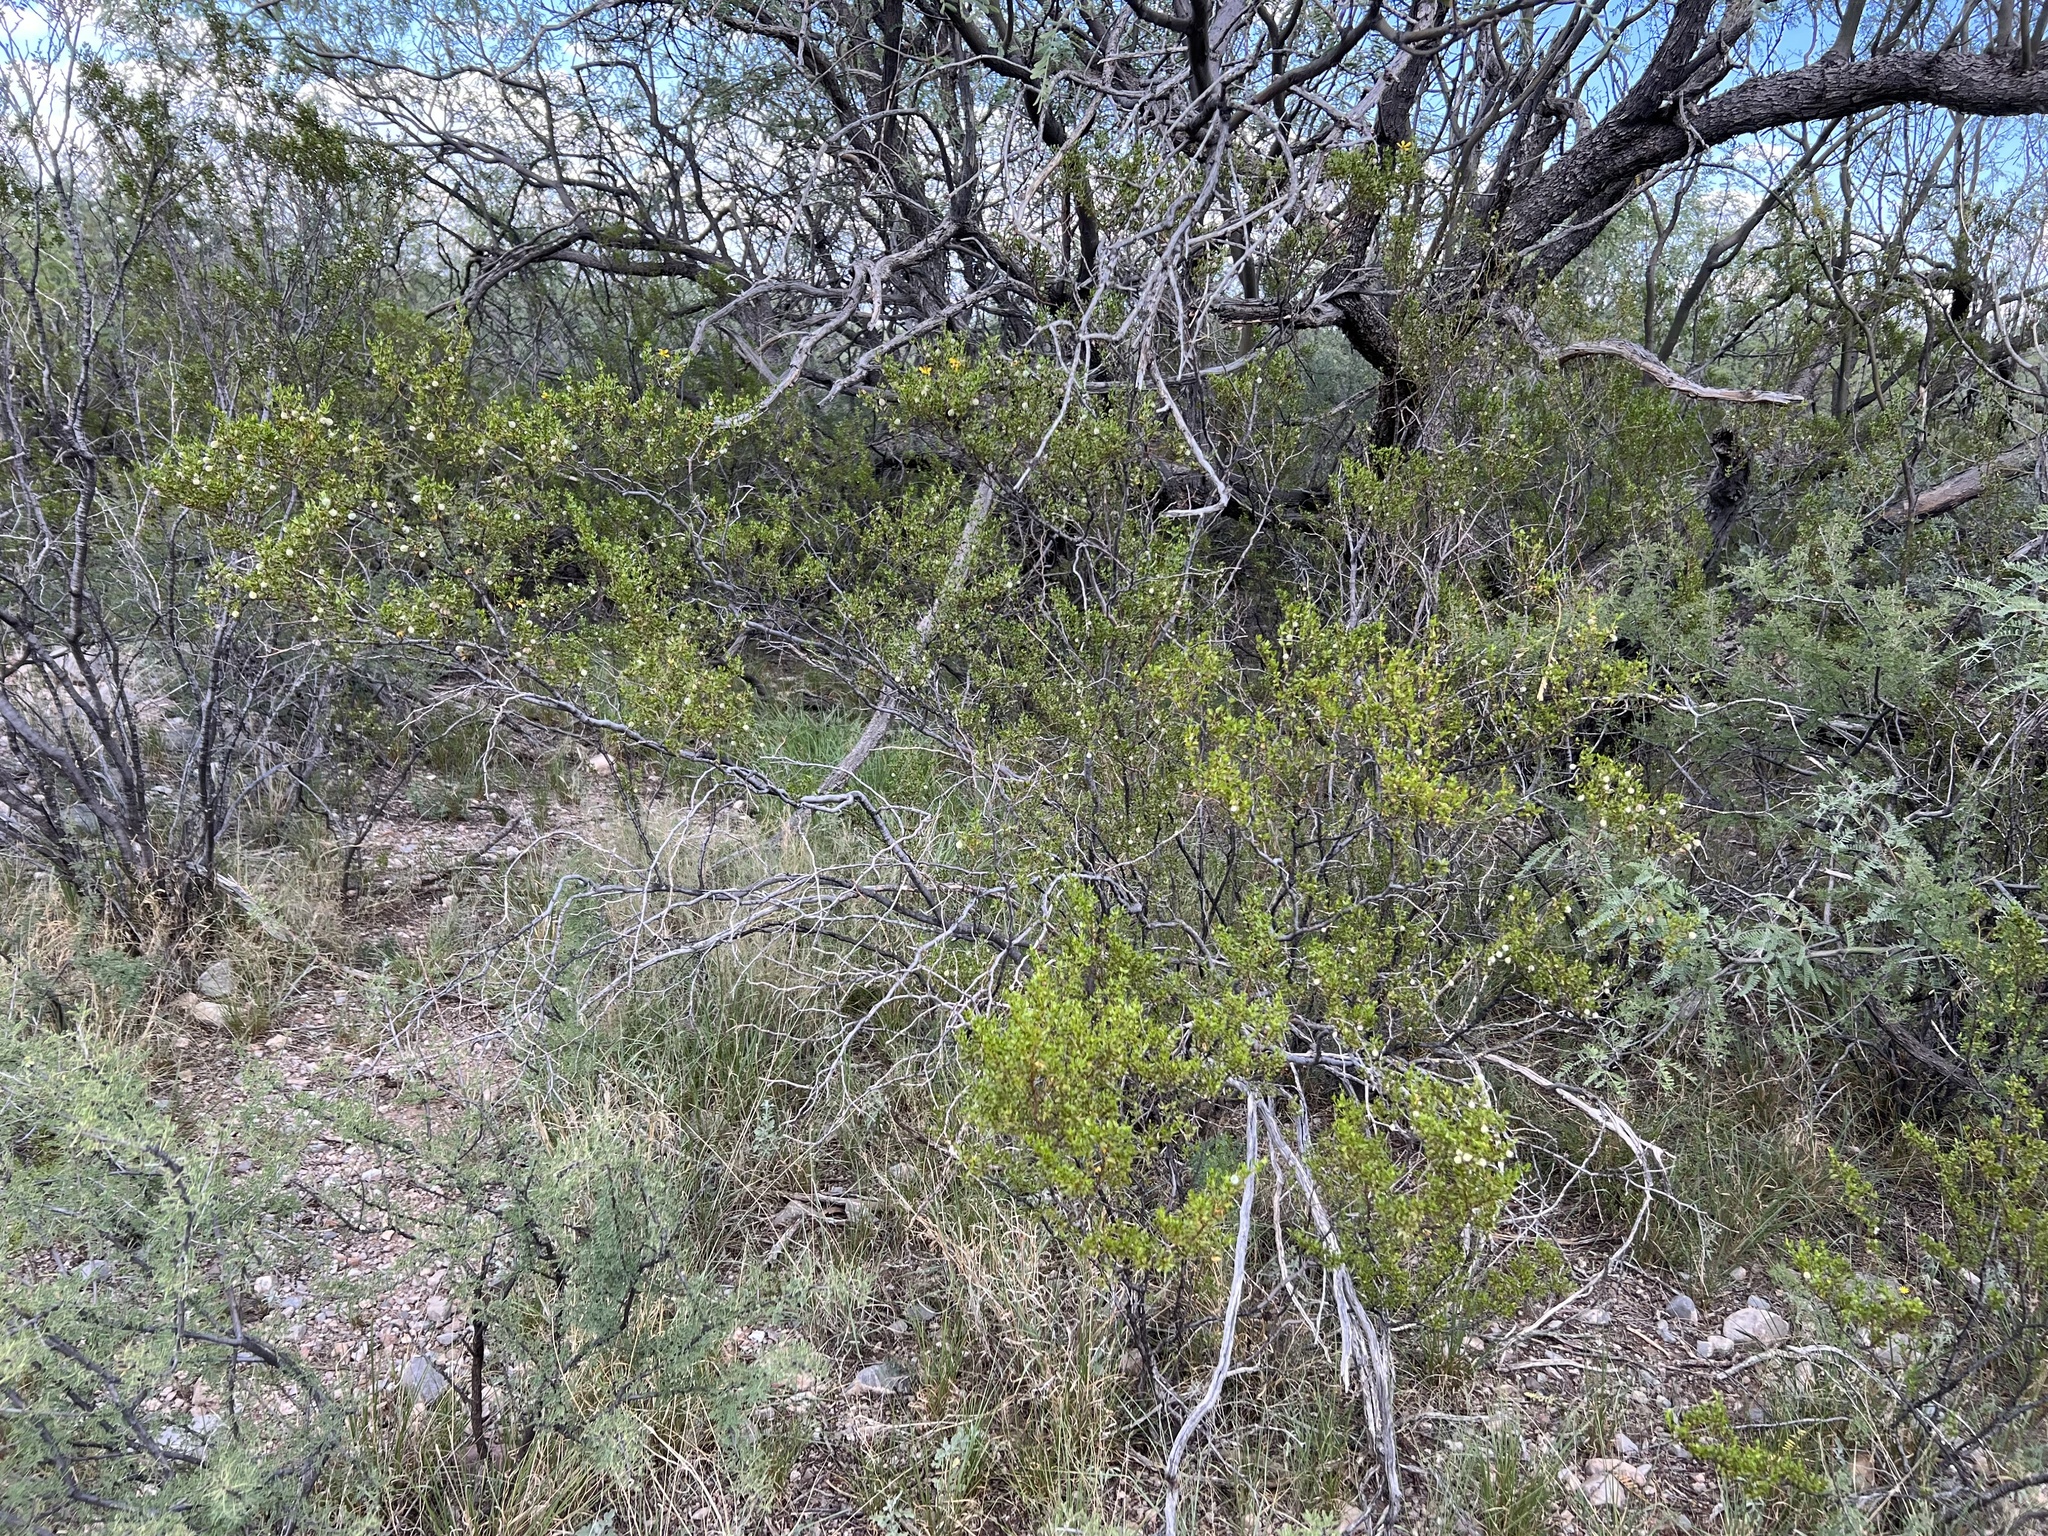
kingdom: Plantae
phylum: Tracheophyta
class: Magnoliopsida
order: Zygophyllales
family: Zygophyllaceae
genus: Larrea
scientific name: Larrea tridentata
